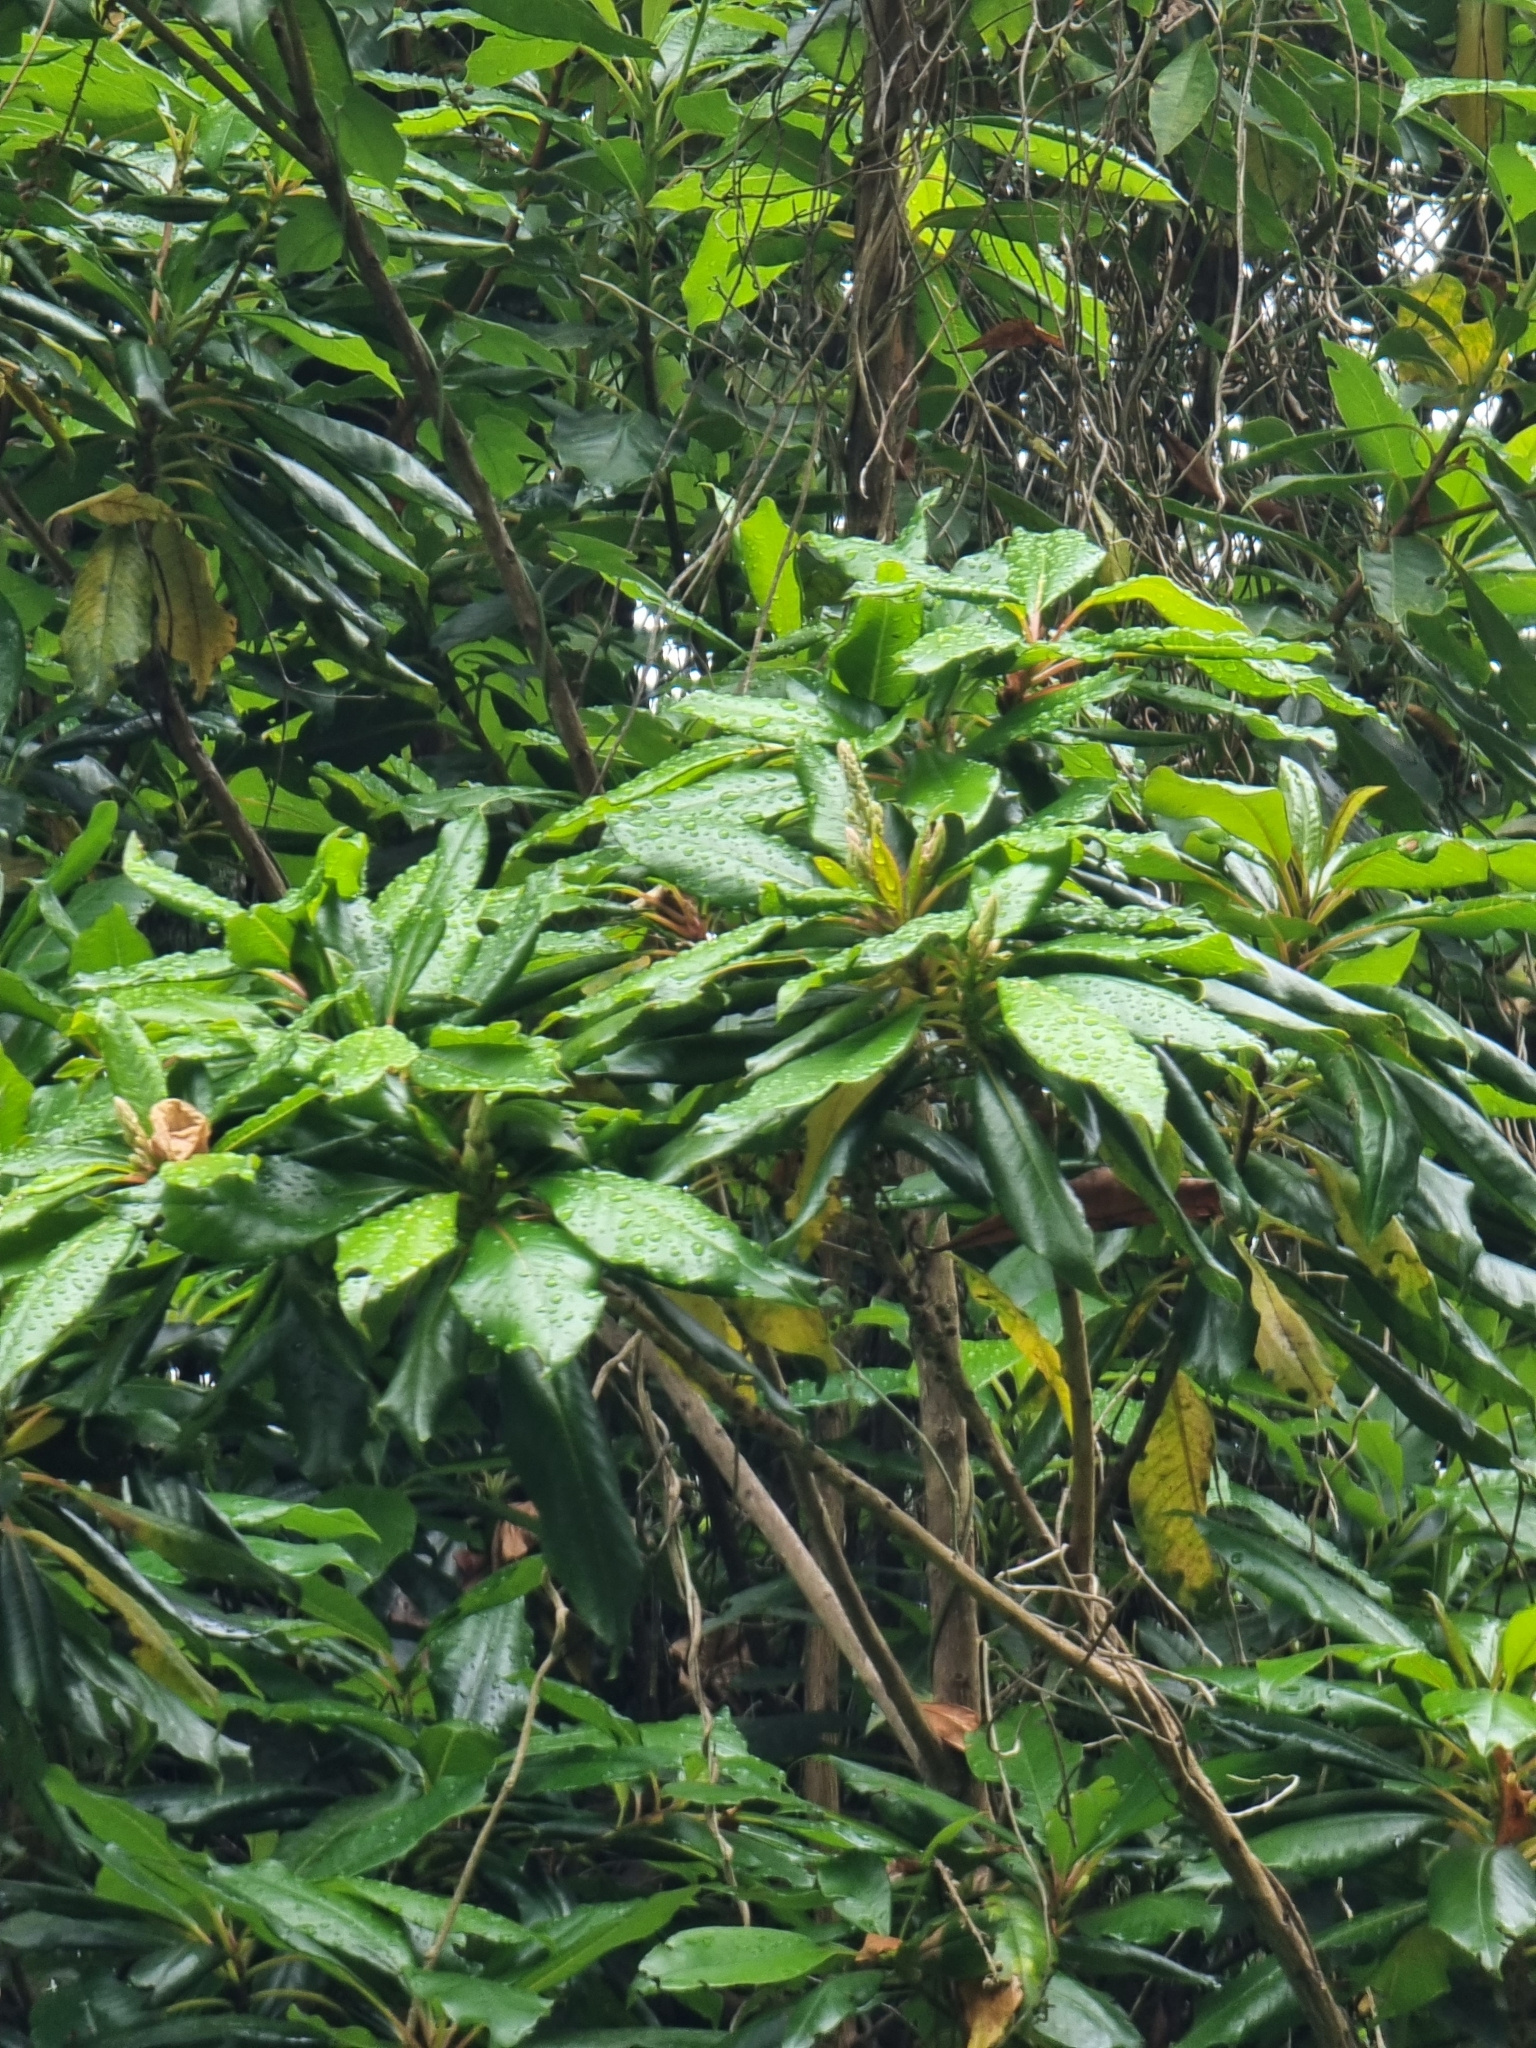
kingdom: Plantae
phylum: Tracheophyta
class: Magnoliopsida
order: Ericales
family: Clethraceae
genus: Clethra
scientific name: Clethra arborea
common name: Lily-of-the-valley-tree
